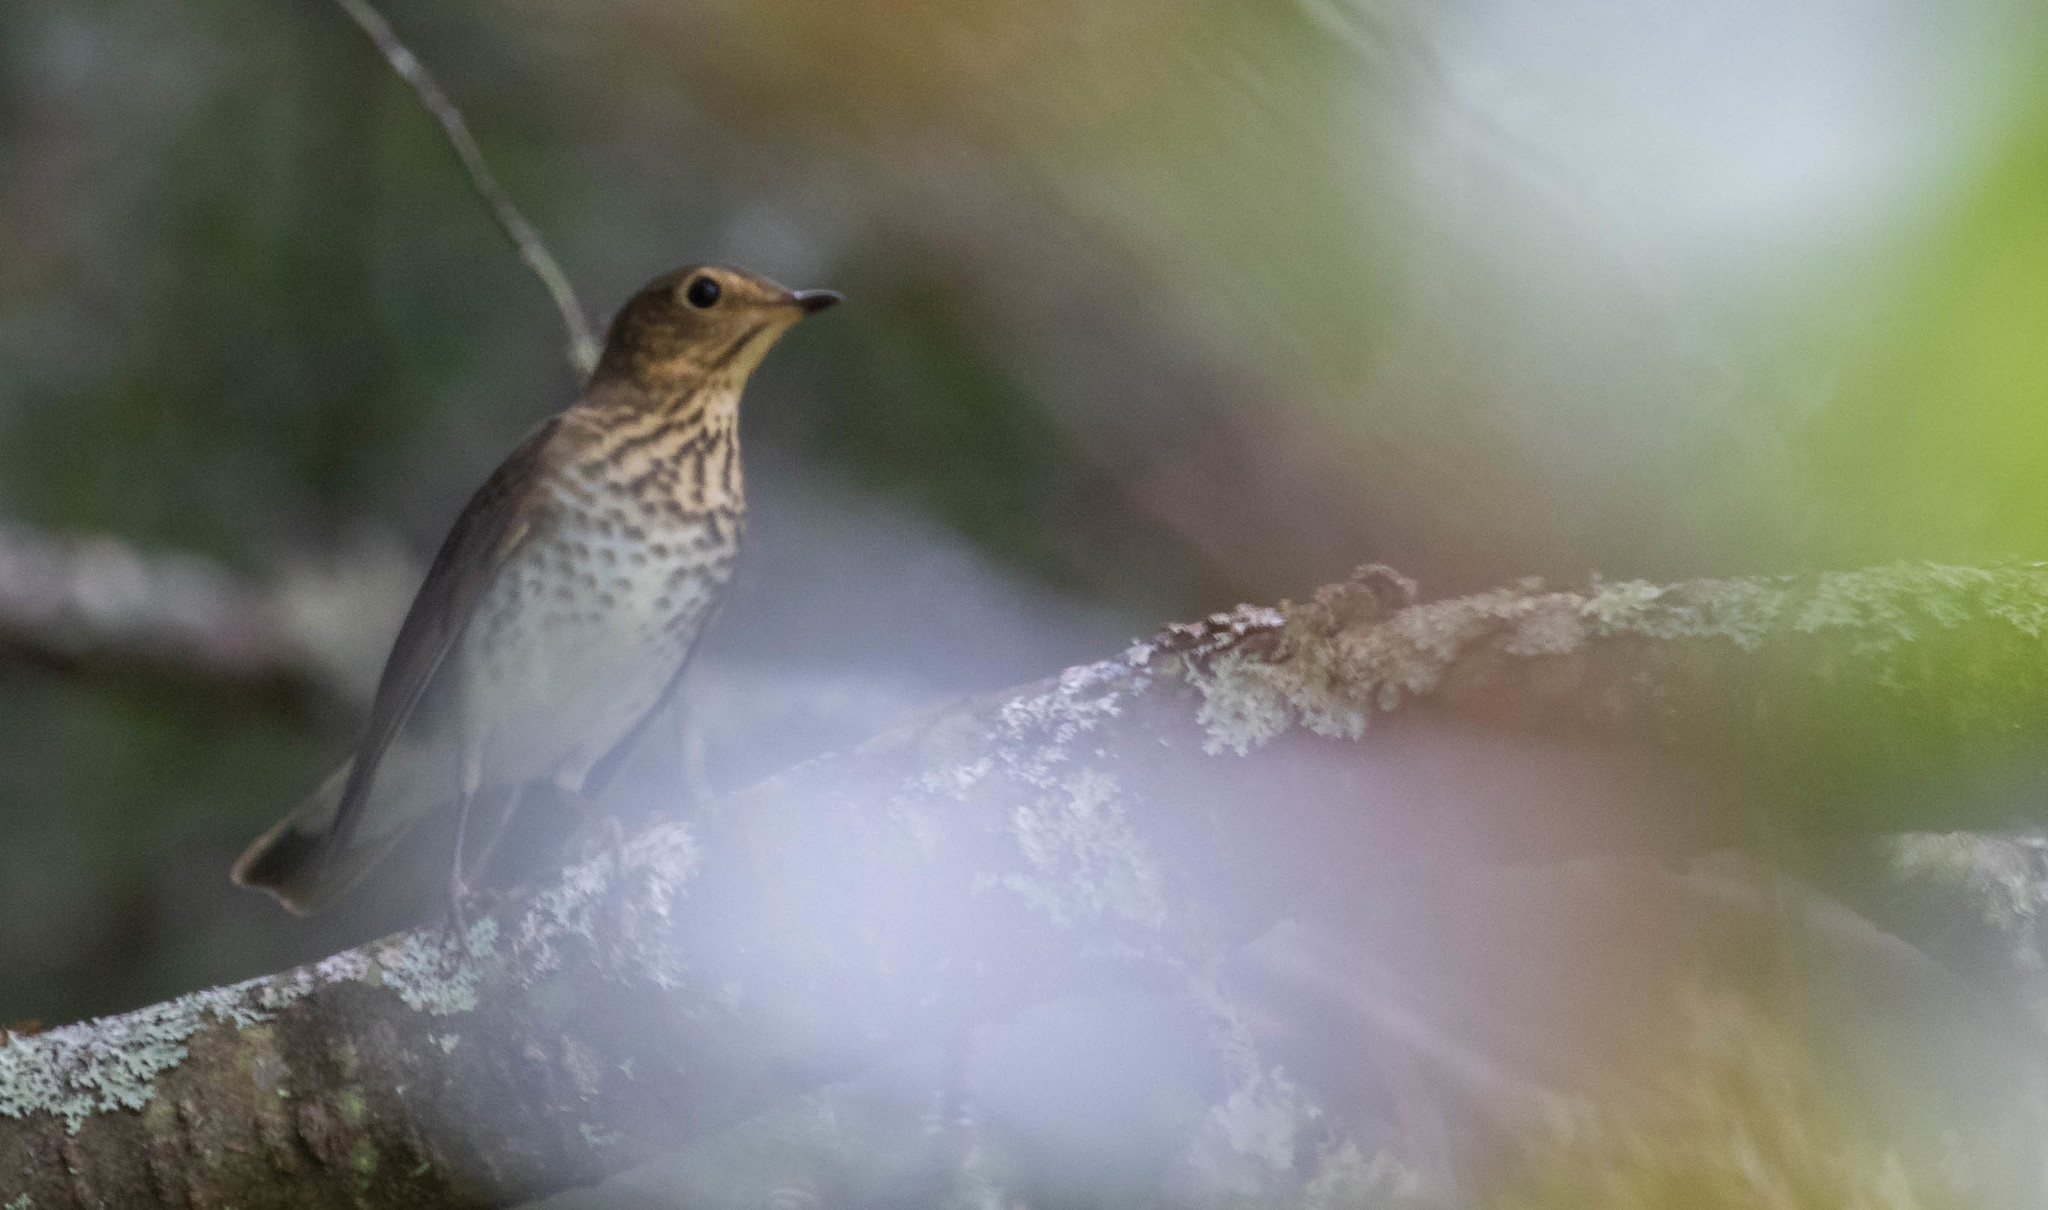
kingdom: Animalia
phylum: Chordata
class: Aves
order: Passeriformes
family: Turdidae
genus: Catharus
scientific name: Catharus ustulatus
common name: Swainson's thrush
